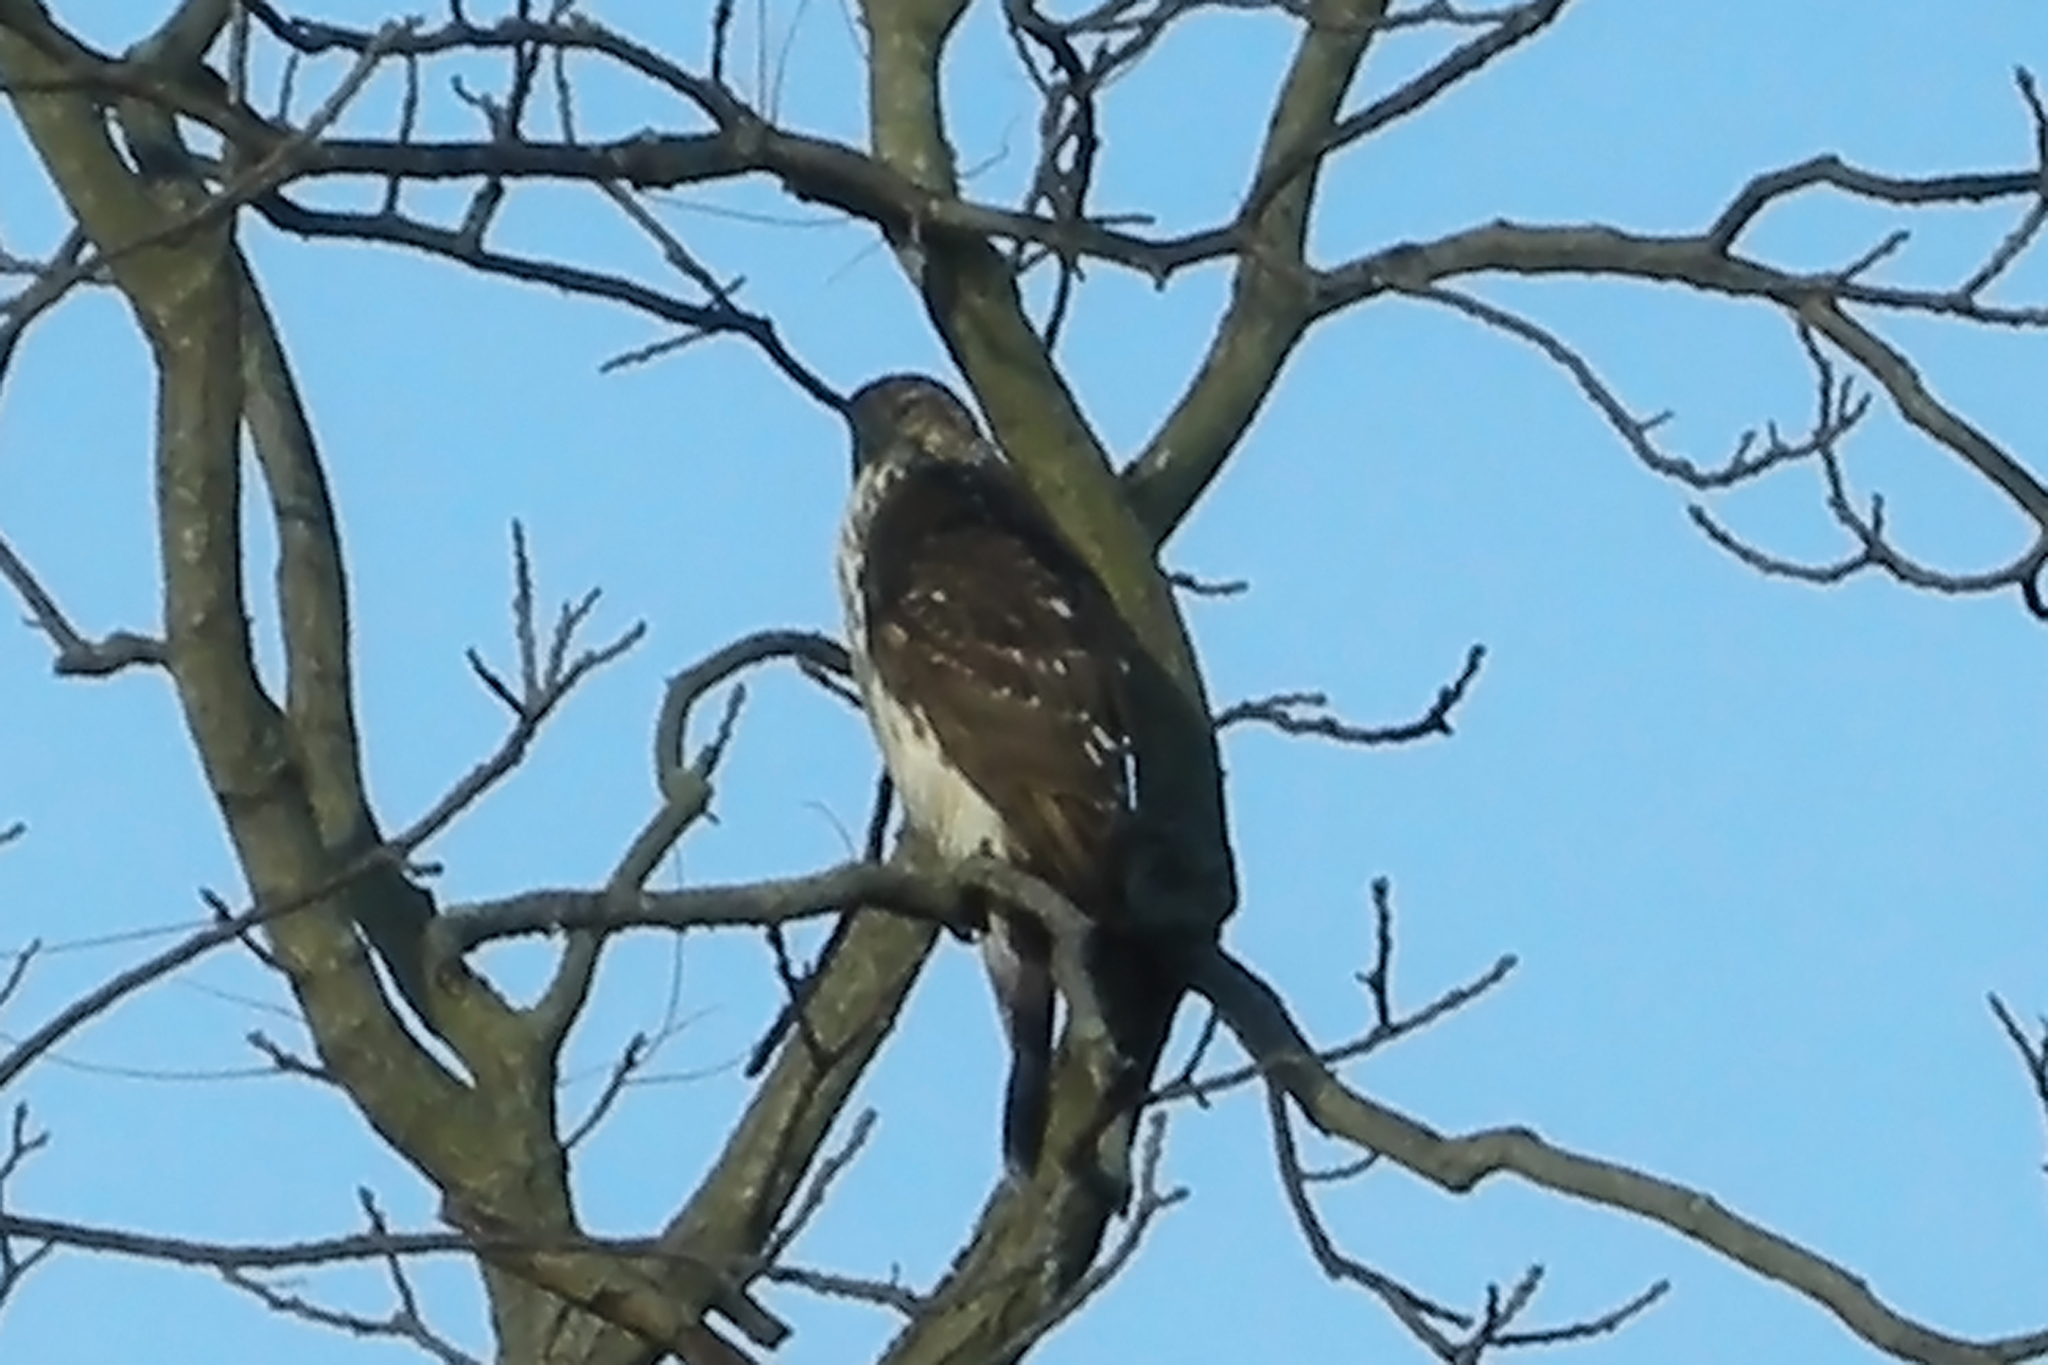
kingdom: Animalia
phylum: Chordata
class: Aves
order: Accipitriformes
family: Accipitridae
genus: Accipiter
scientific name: Accipiter cooperii
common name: Cooper's hawk
